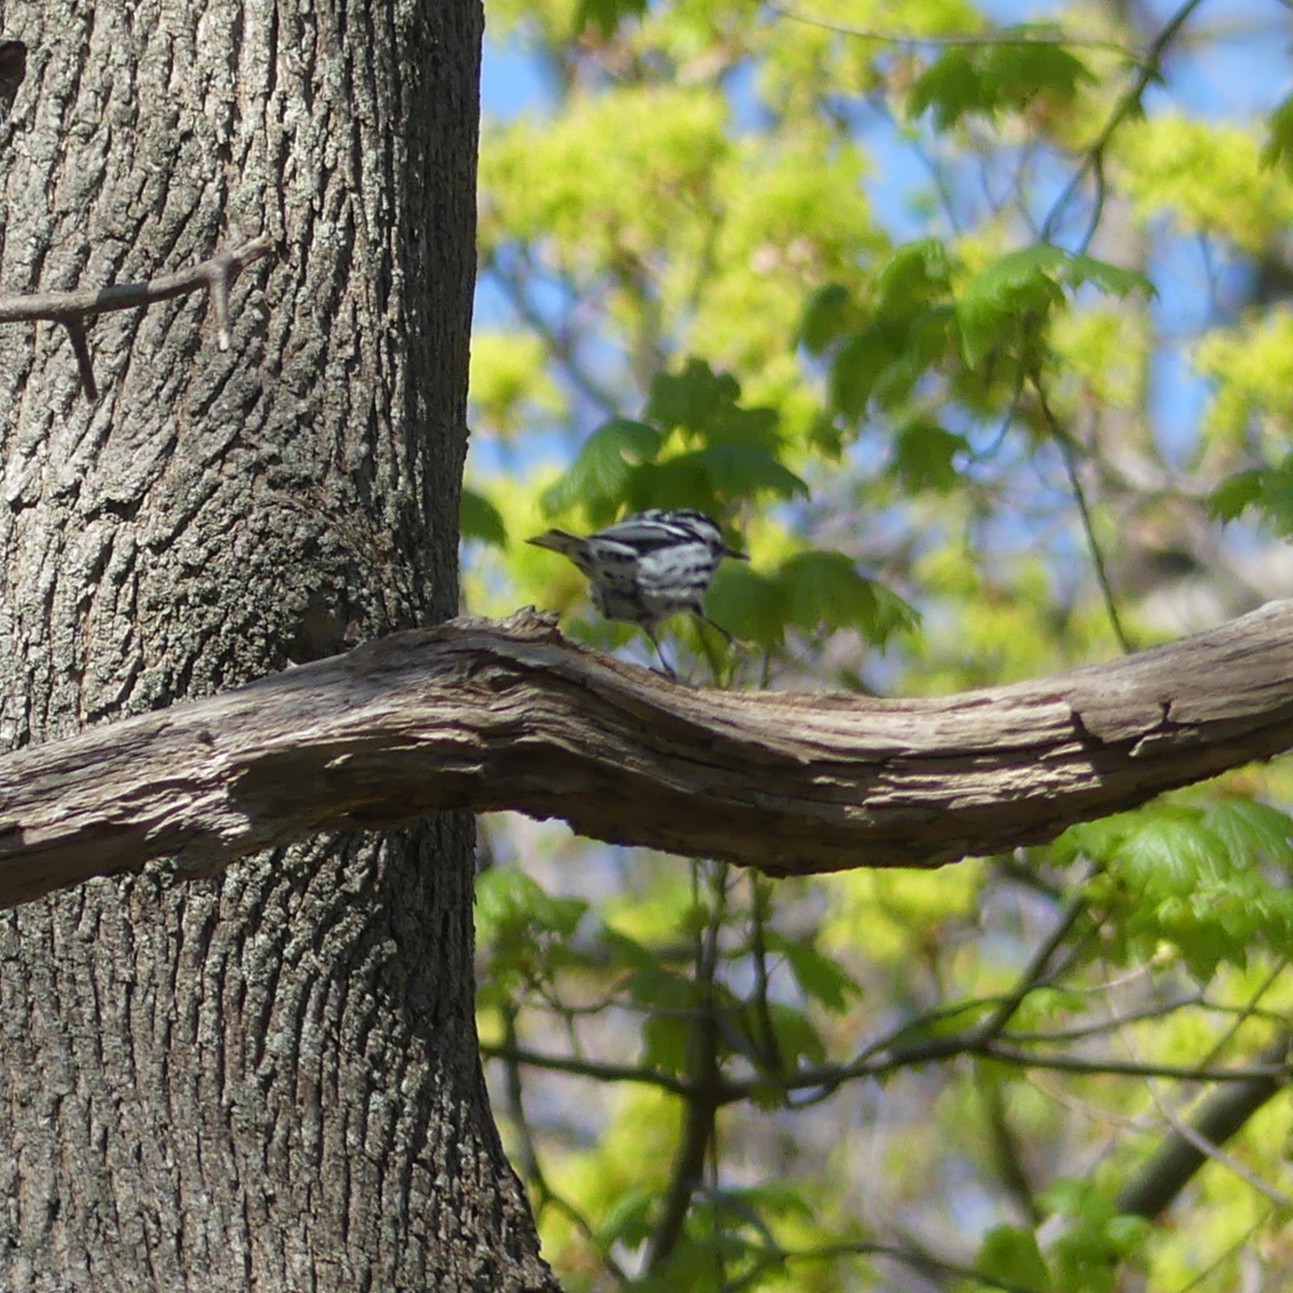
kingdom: Animalia
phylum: Chordata
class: Aves
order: Passeriformes
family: Parulidae
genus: Mniotilta
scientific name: Mniotilta varia
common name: Black-and-white warbler
